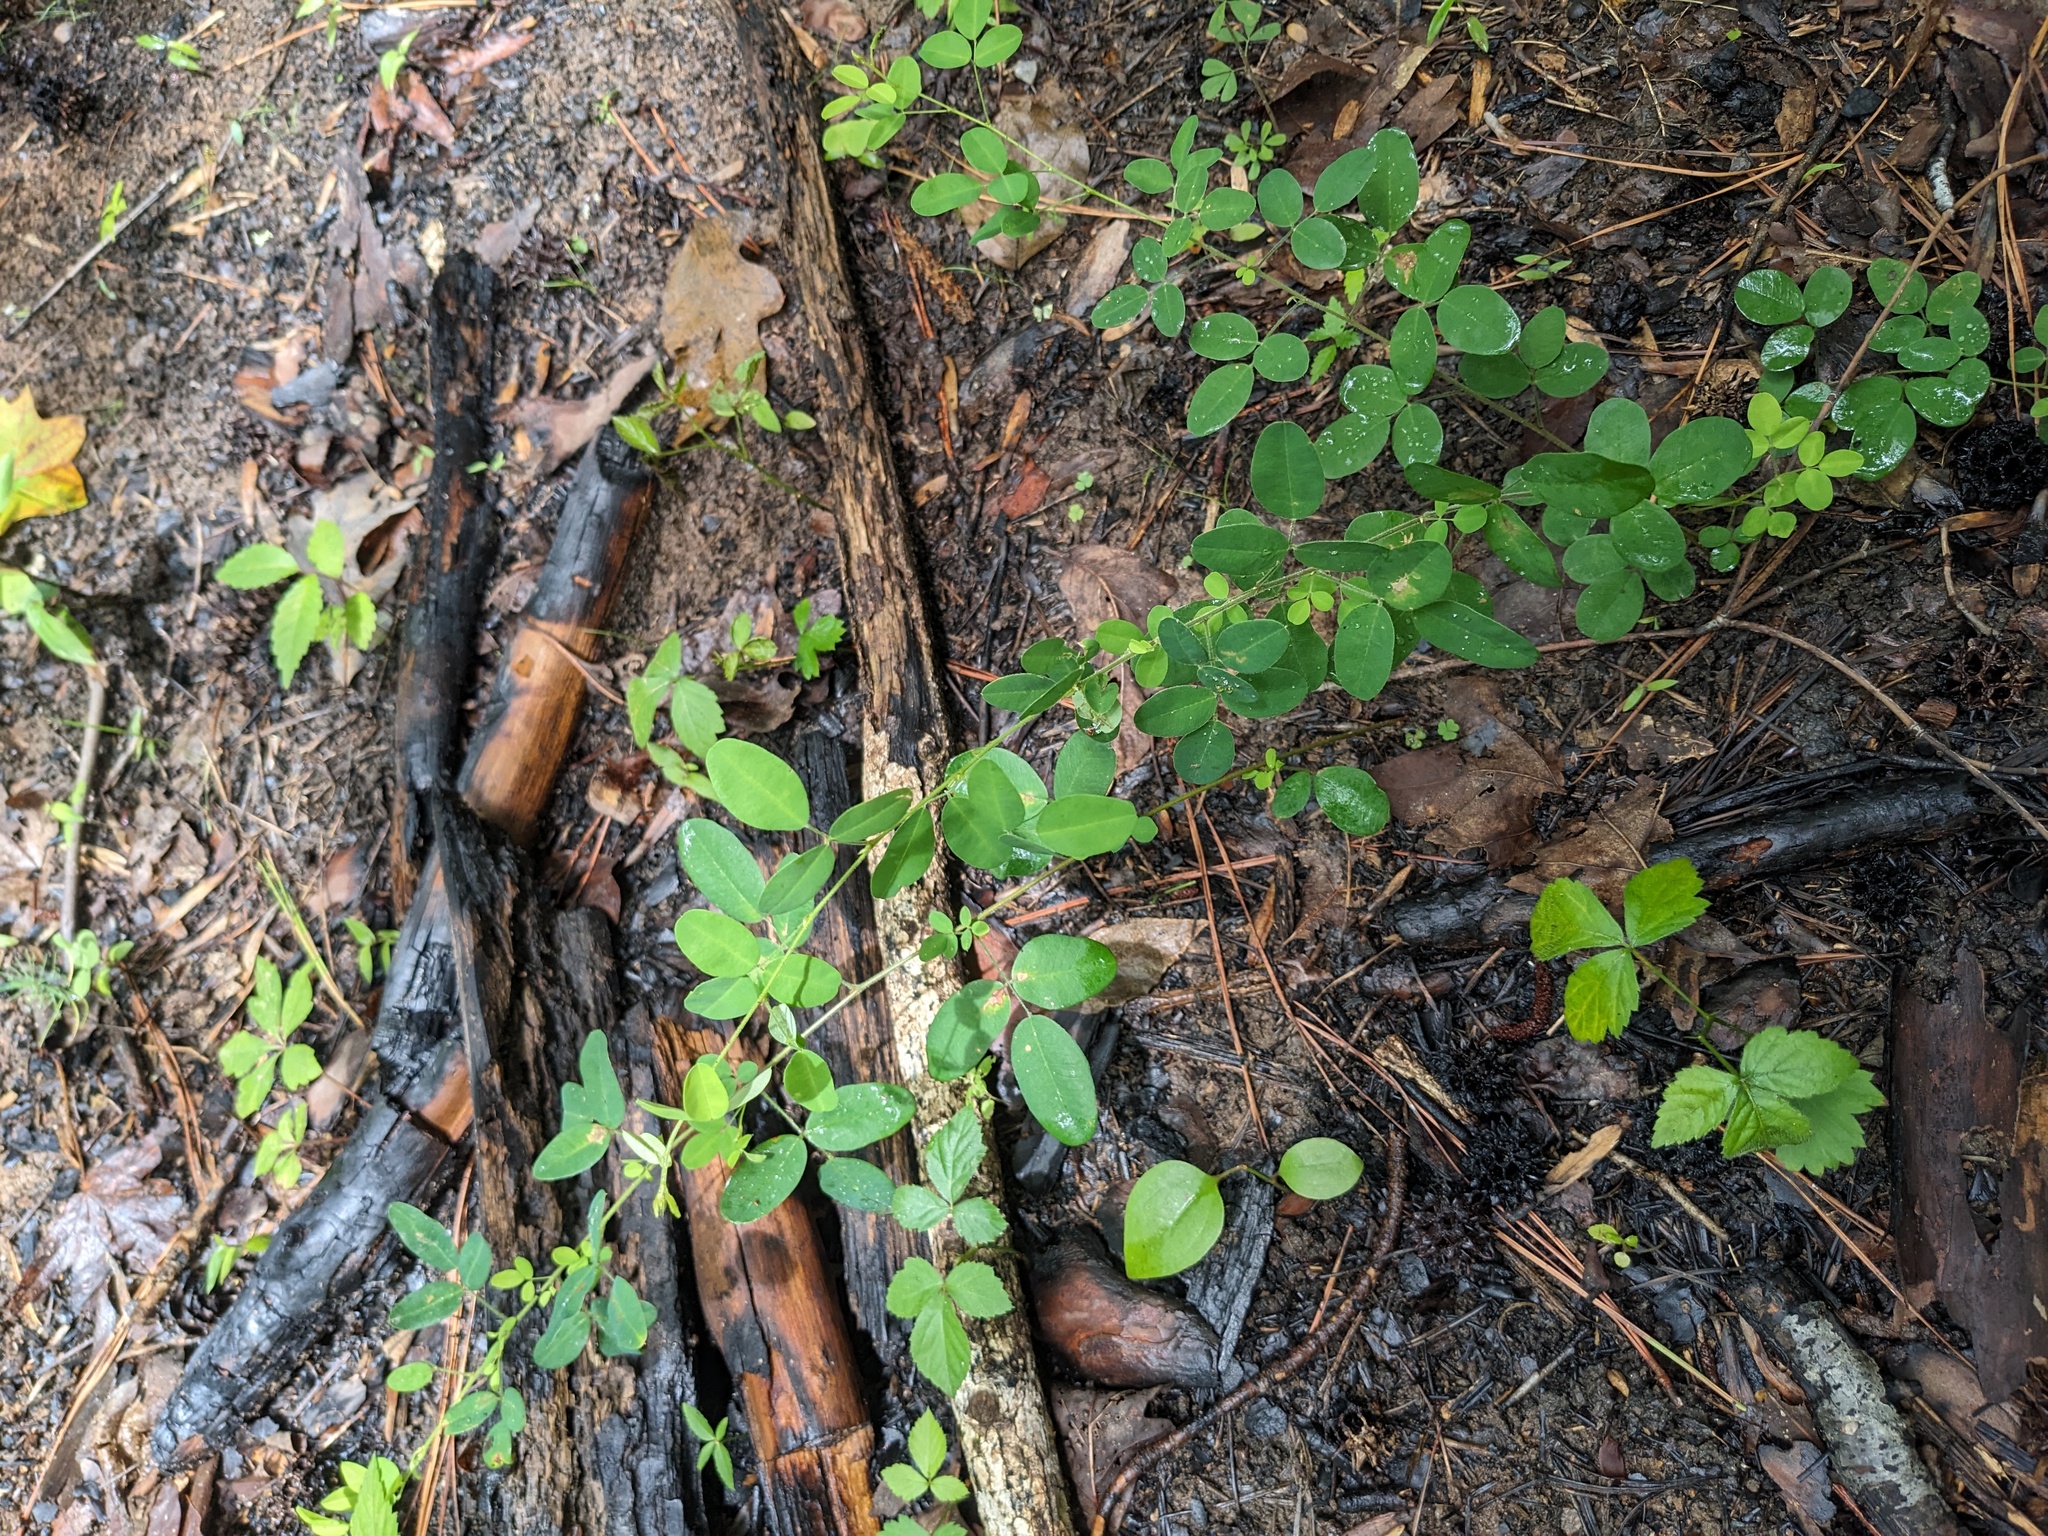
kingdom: Plantae
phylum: Tracheophyta
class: Magnoliopsida
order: Fabales
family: Fabaceae
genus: Lespedeza
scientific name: Lespedeza procumbens
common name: Downy trailing bush-clover
